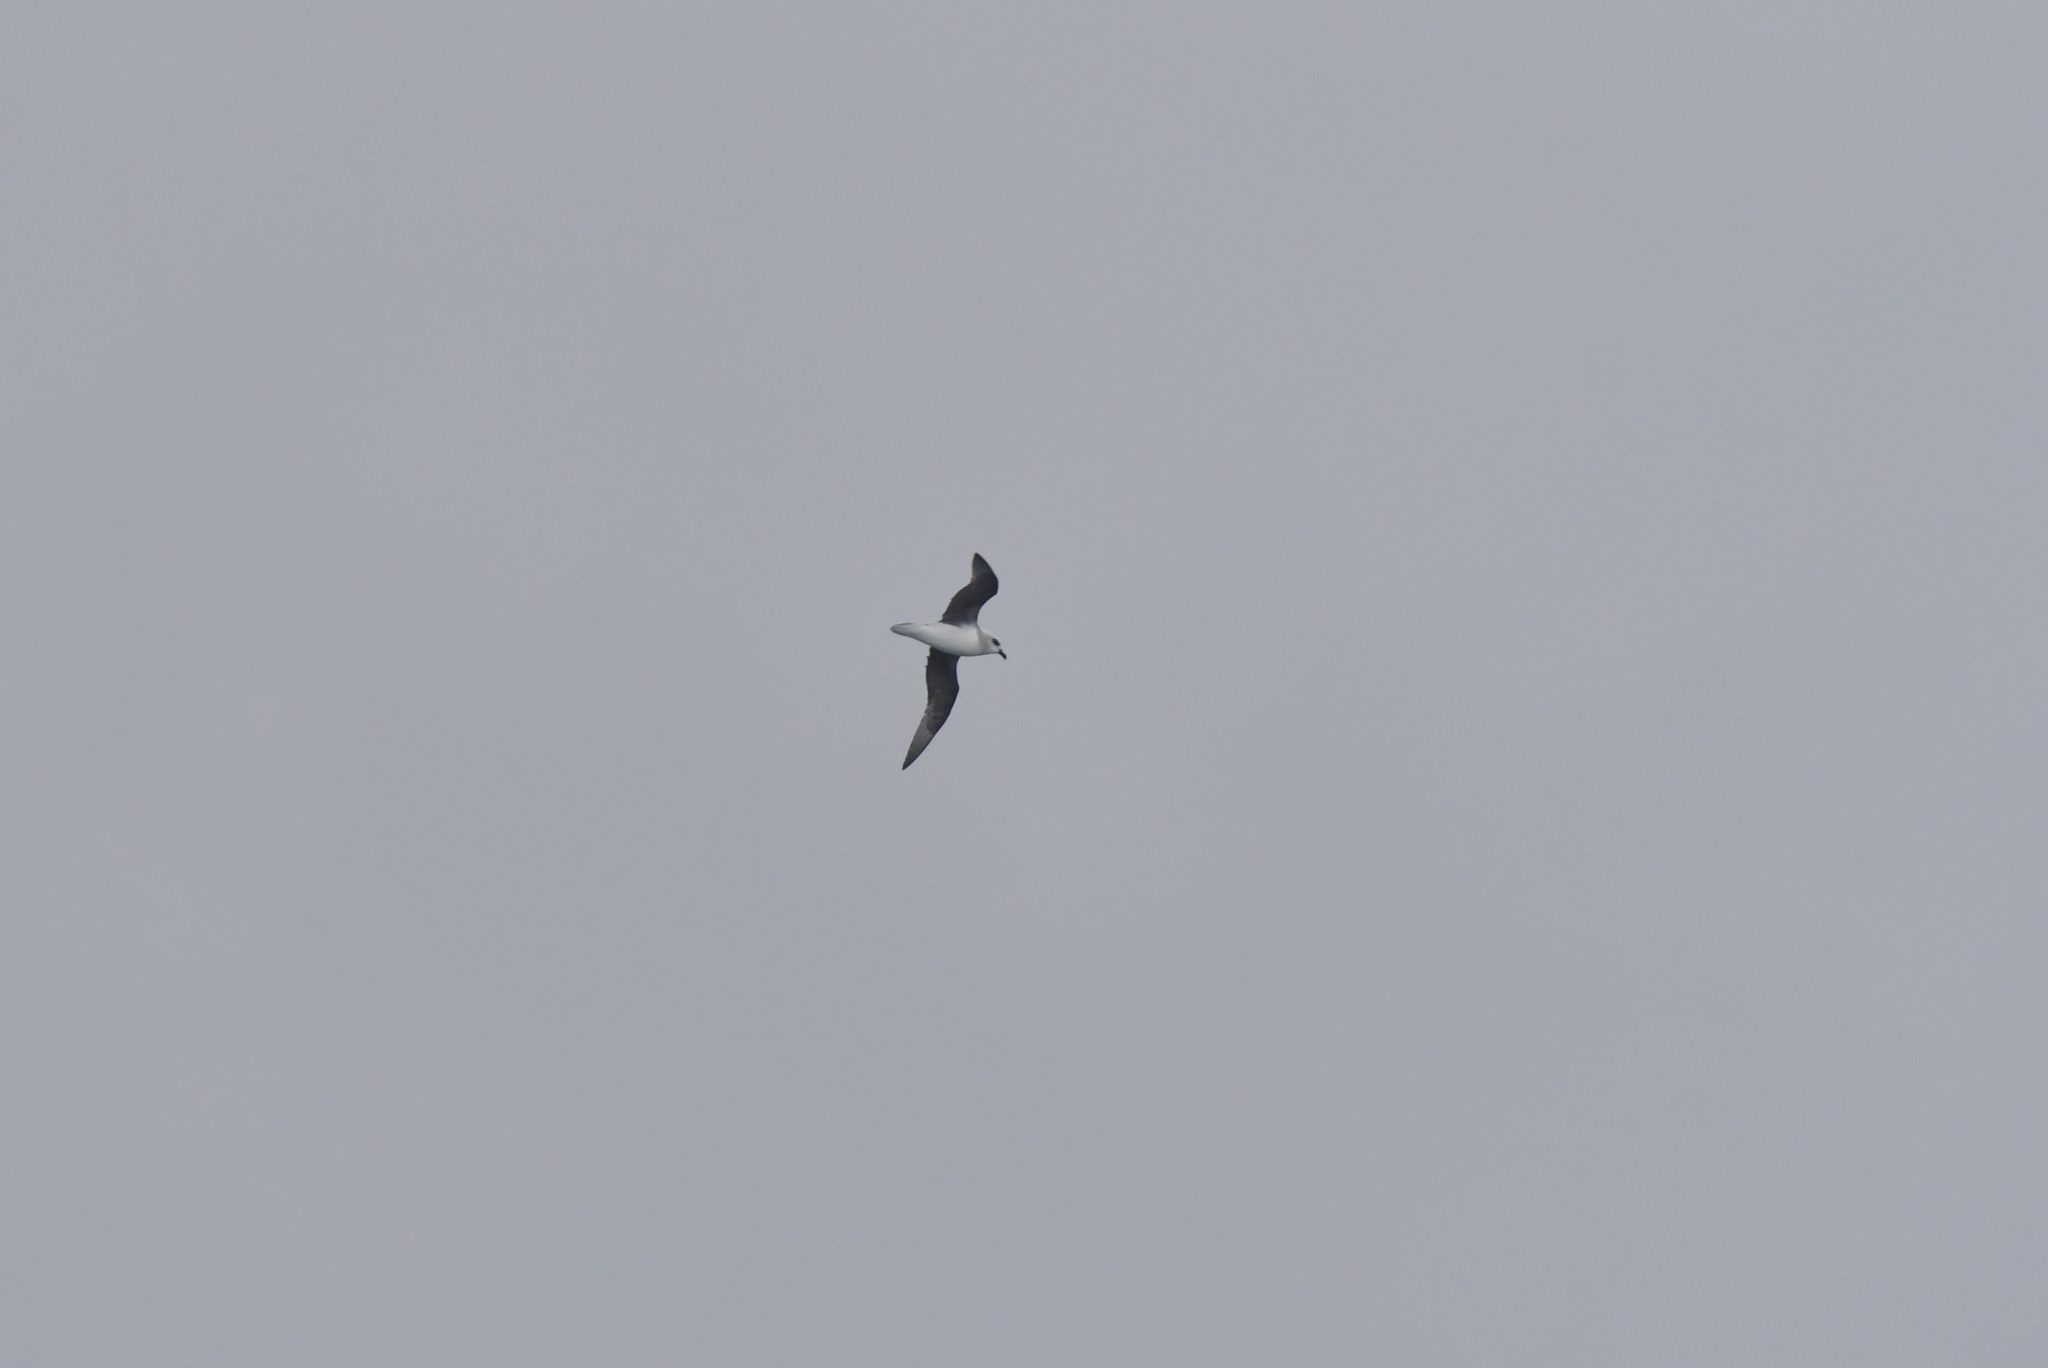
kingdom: Animalia
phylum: Chordata
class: Aves
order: Procellariiformes
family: Procellariidae
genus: Pterodroma
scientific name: Pterodroma lessonii
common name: White-headed petrel
